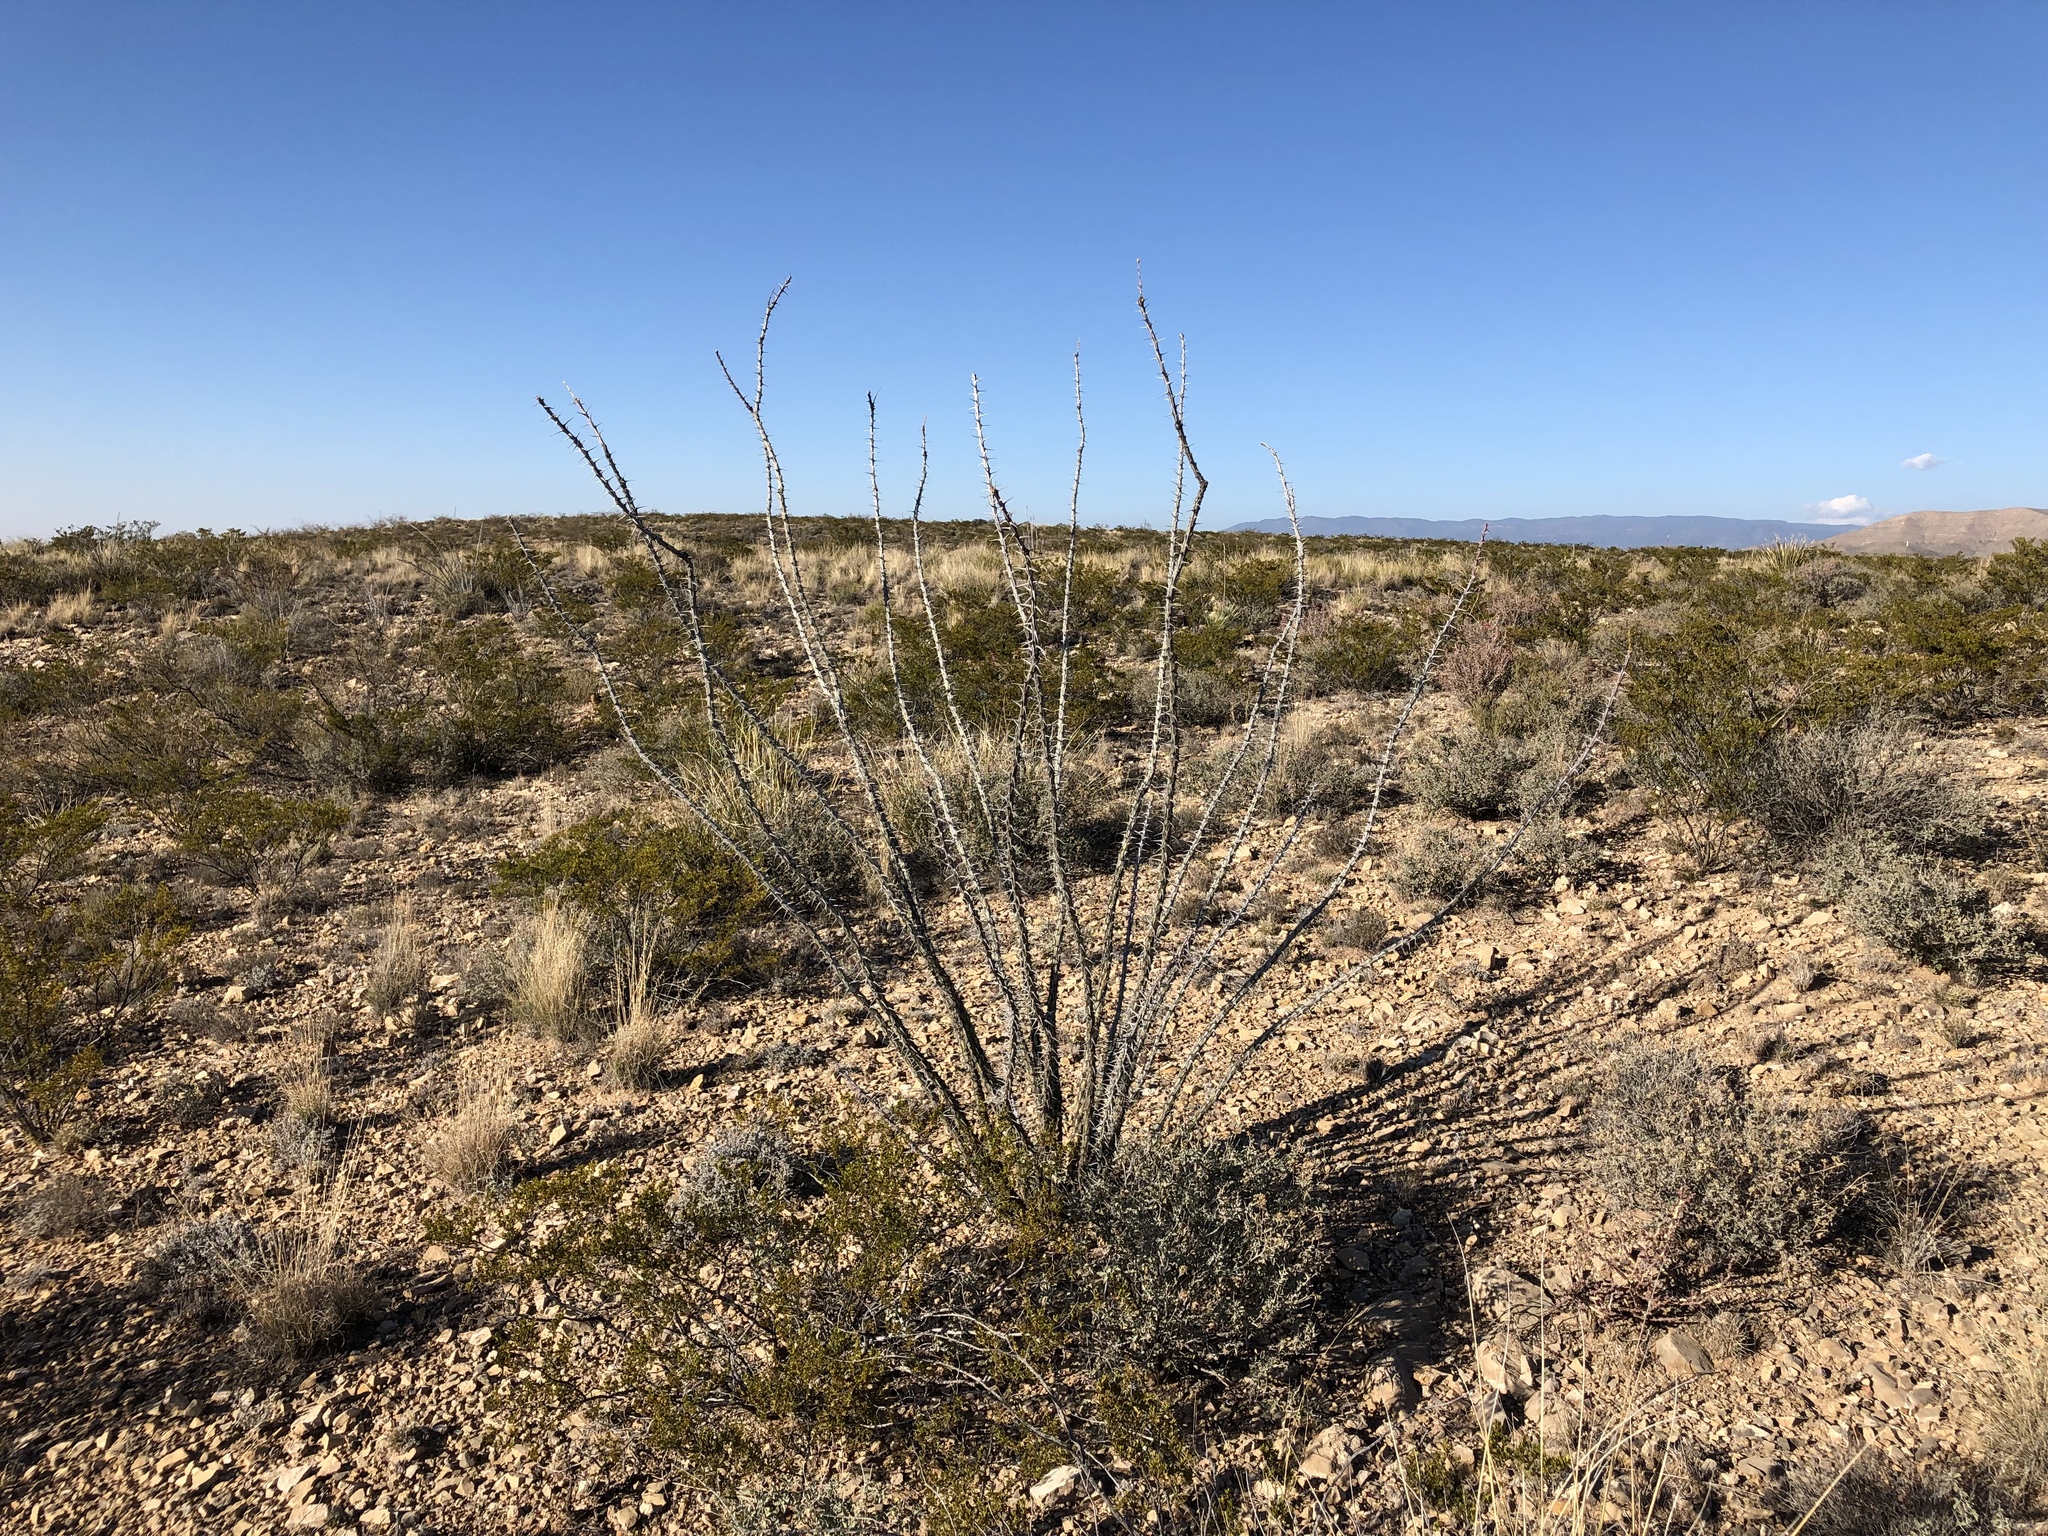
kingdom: Plantae
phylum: Tracheophyta
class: Magnoliopsida
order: Ericales
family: Fouquieriaceae
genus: Fouquieria
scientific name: Fouquieria splendens
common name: Vine-cactus
